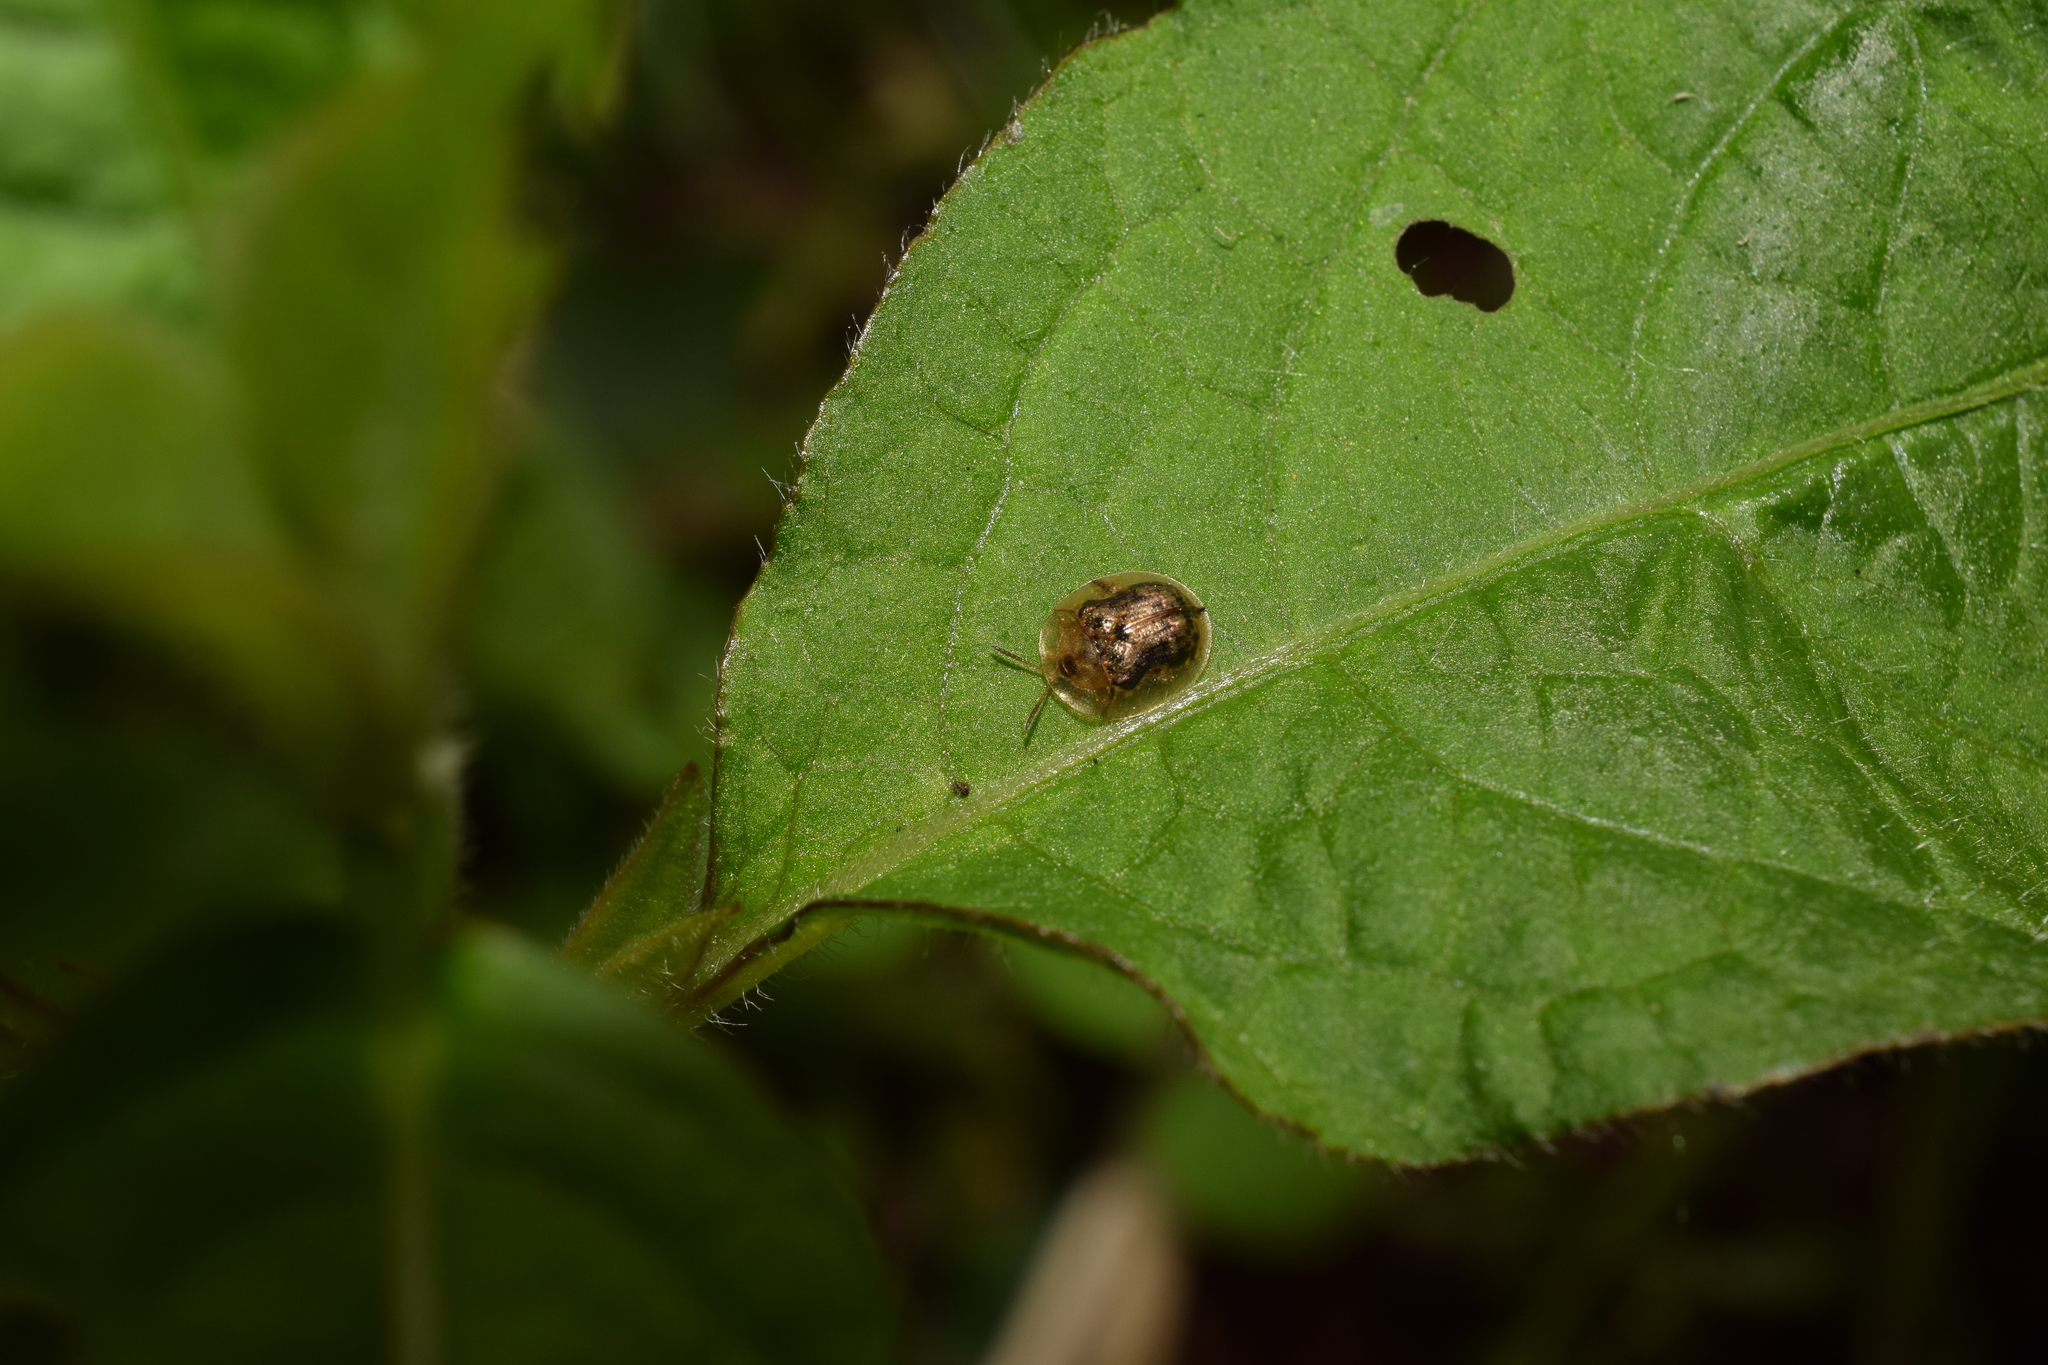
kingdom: Animalia
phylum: Arthropoda
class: Insecta
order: Coleoptera
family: Chrysomelidae
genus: Cassida
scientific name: Cassida japana
